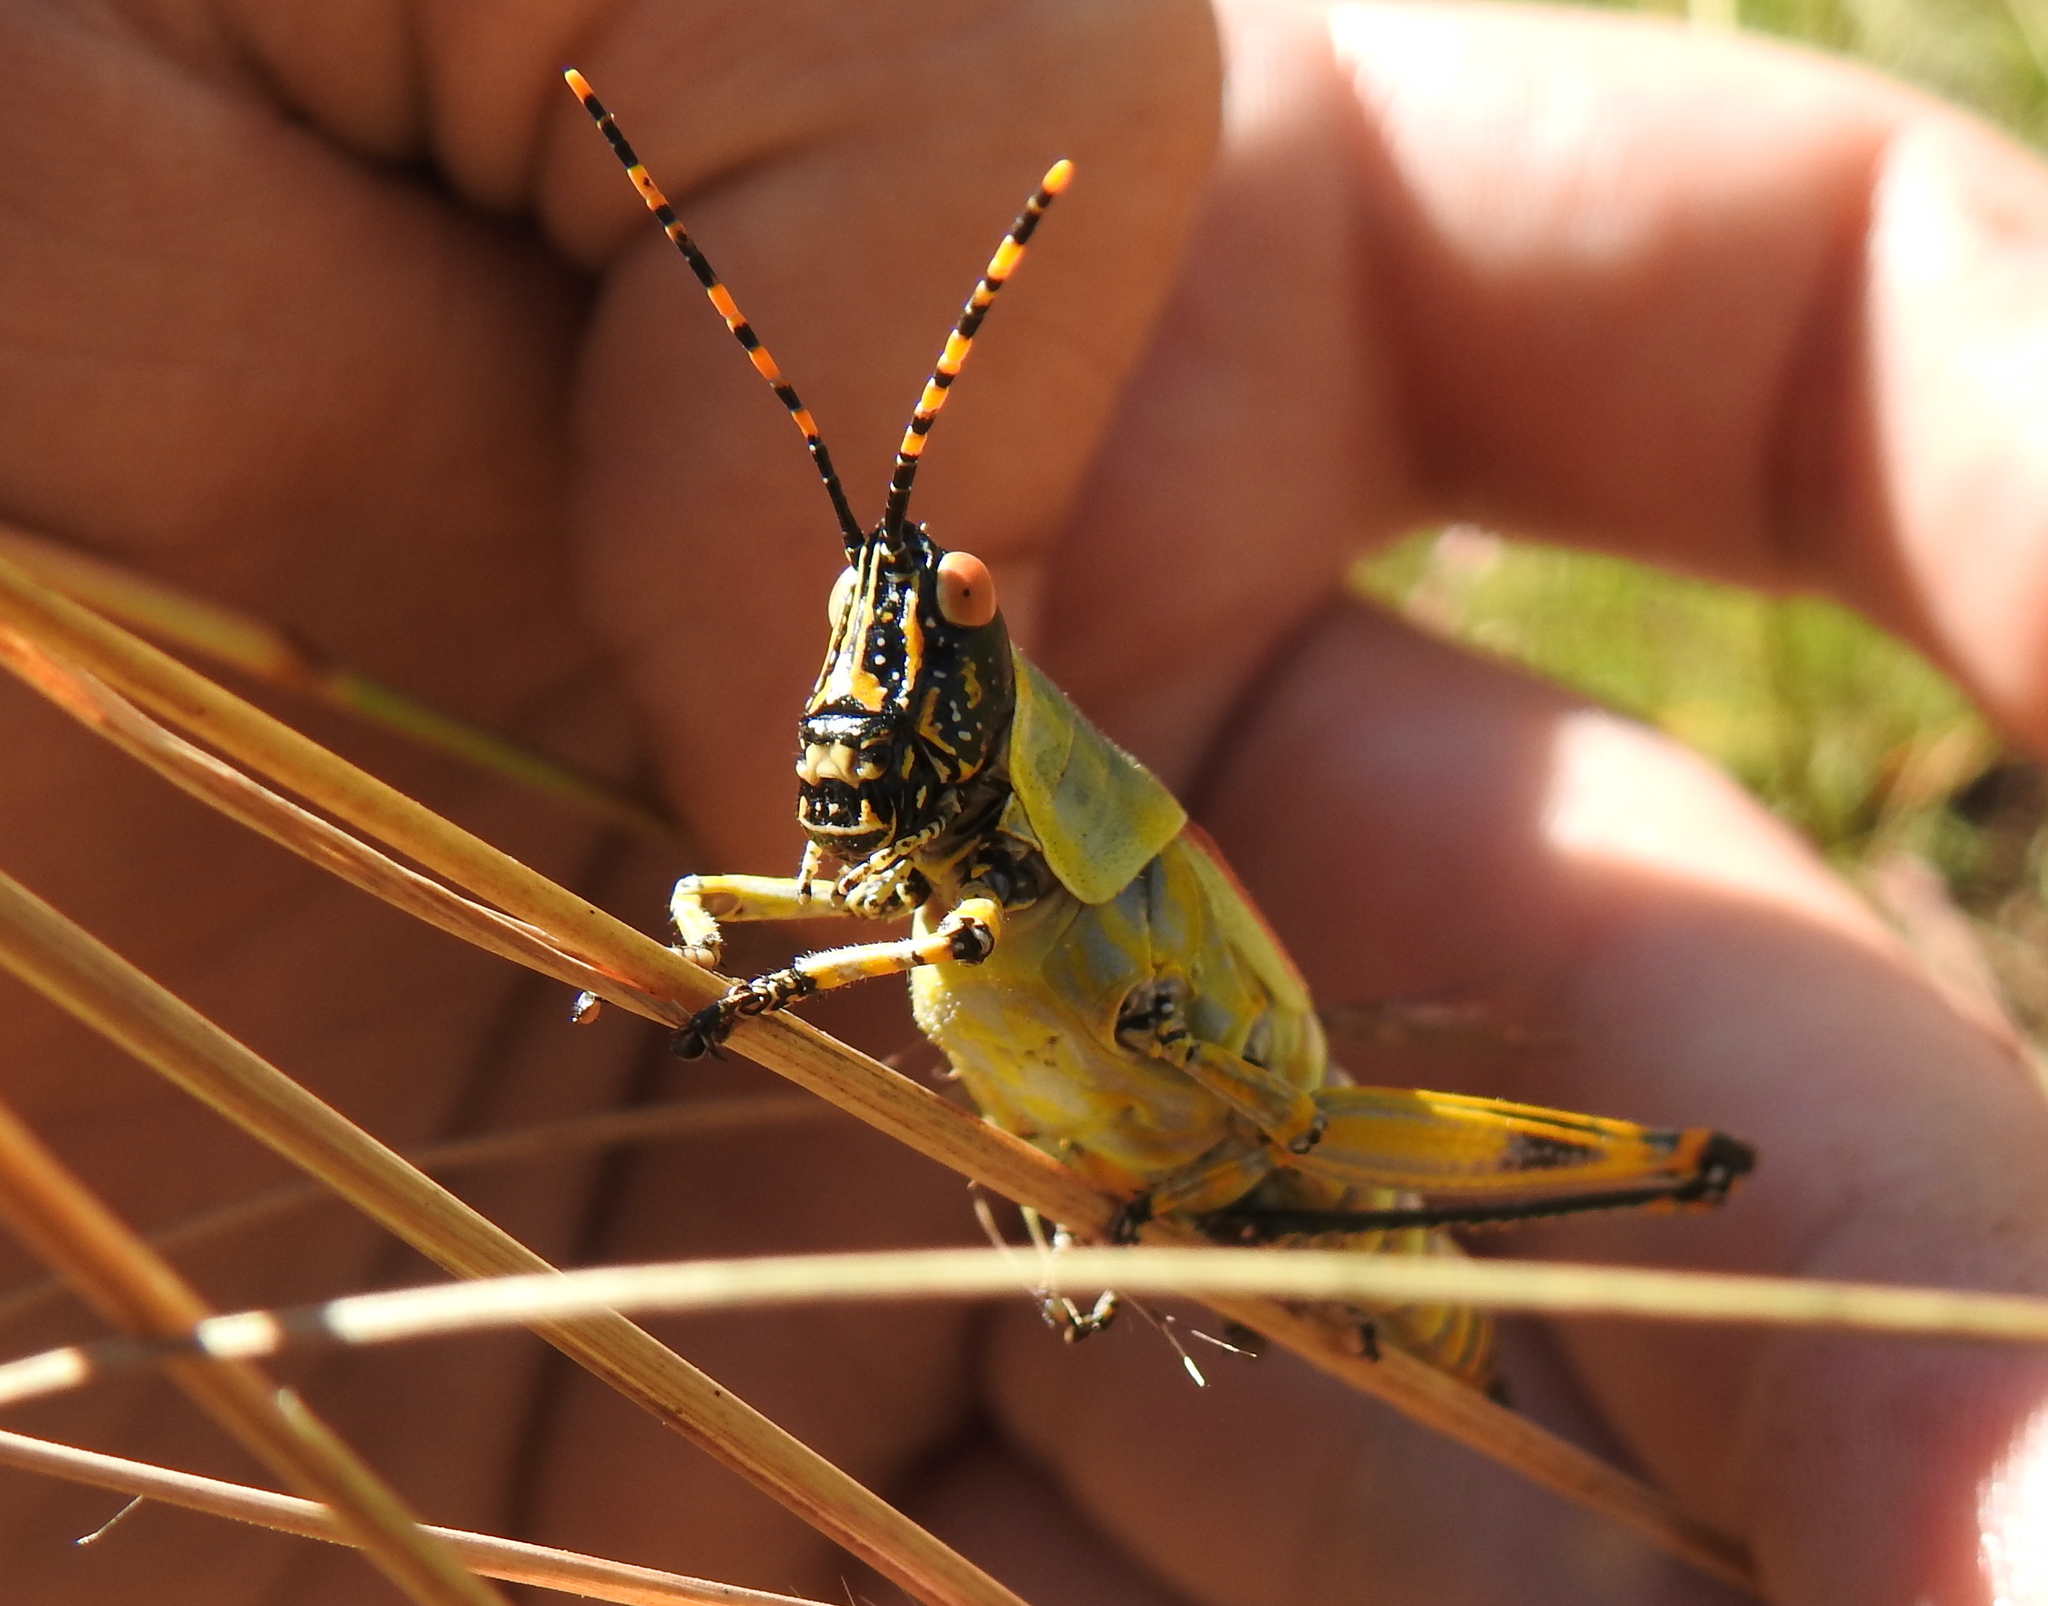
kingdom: Animalia
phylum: Arthropoda
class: Insecta
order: Orthoptera
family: Pyrgomorphidae
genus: Zonocerus
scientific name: Zonocerus elegans
